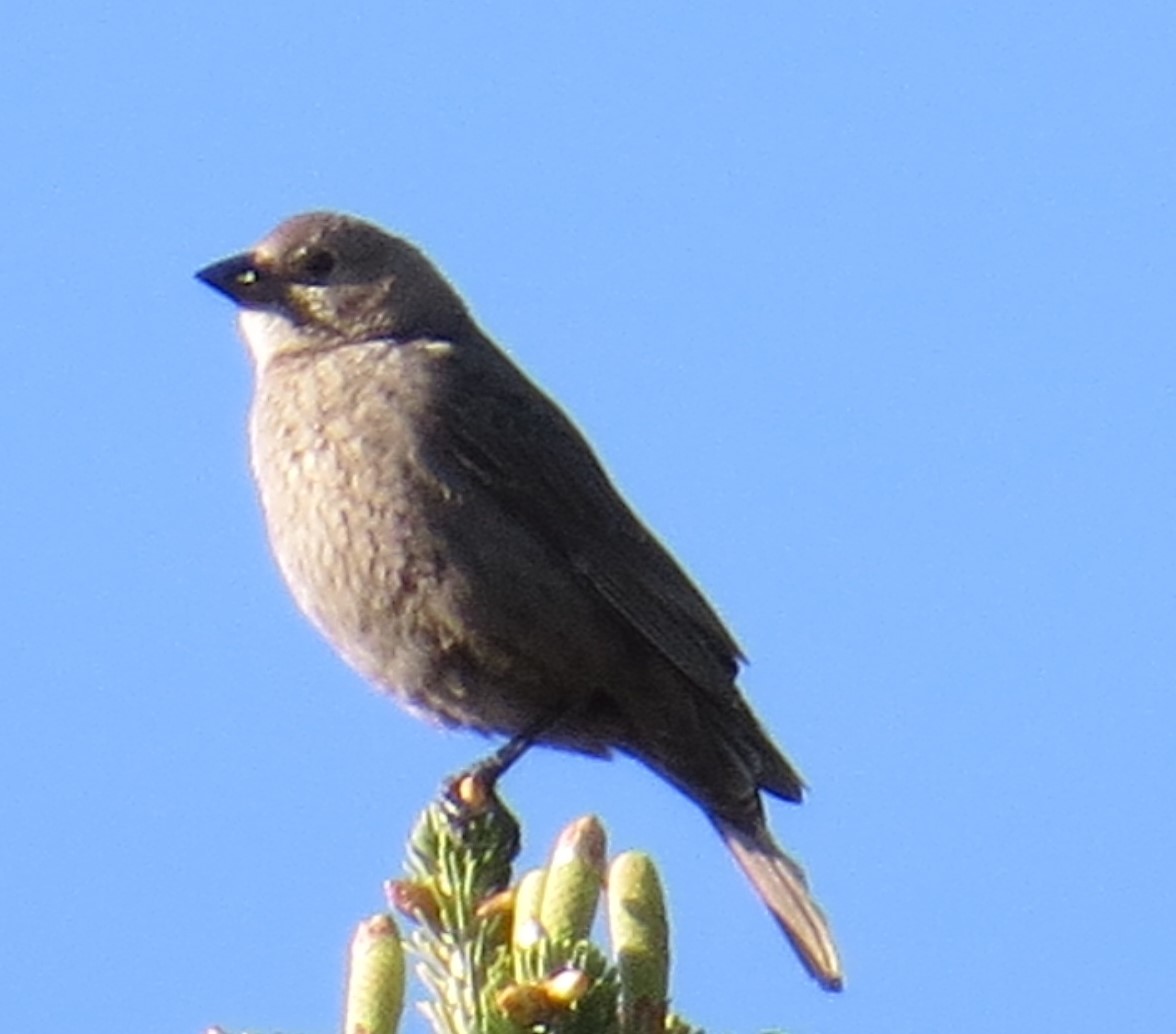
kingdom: Animalia
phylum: Chordata
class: Aves
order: Passeriformes
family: Icteridae
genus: Molothrus
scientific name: Molothrus ater
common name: Brown-headed cowbird
